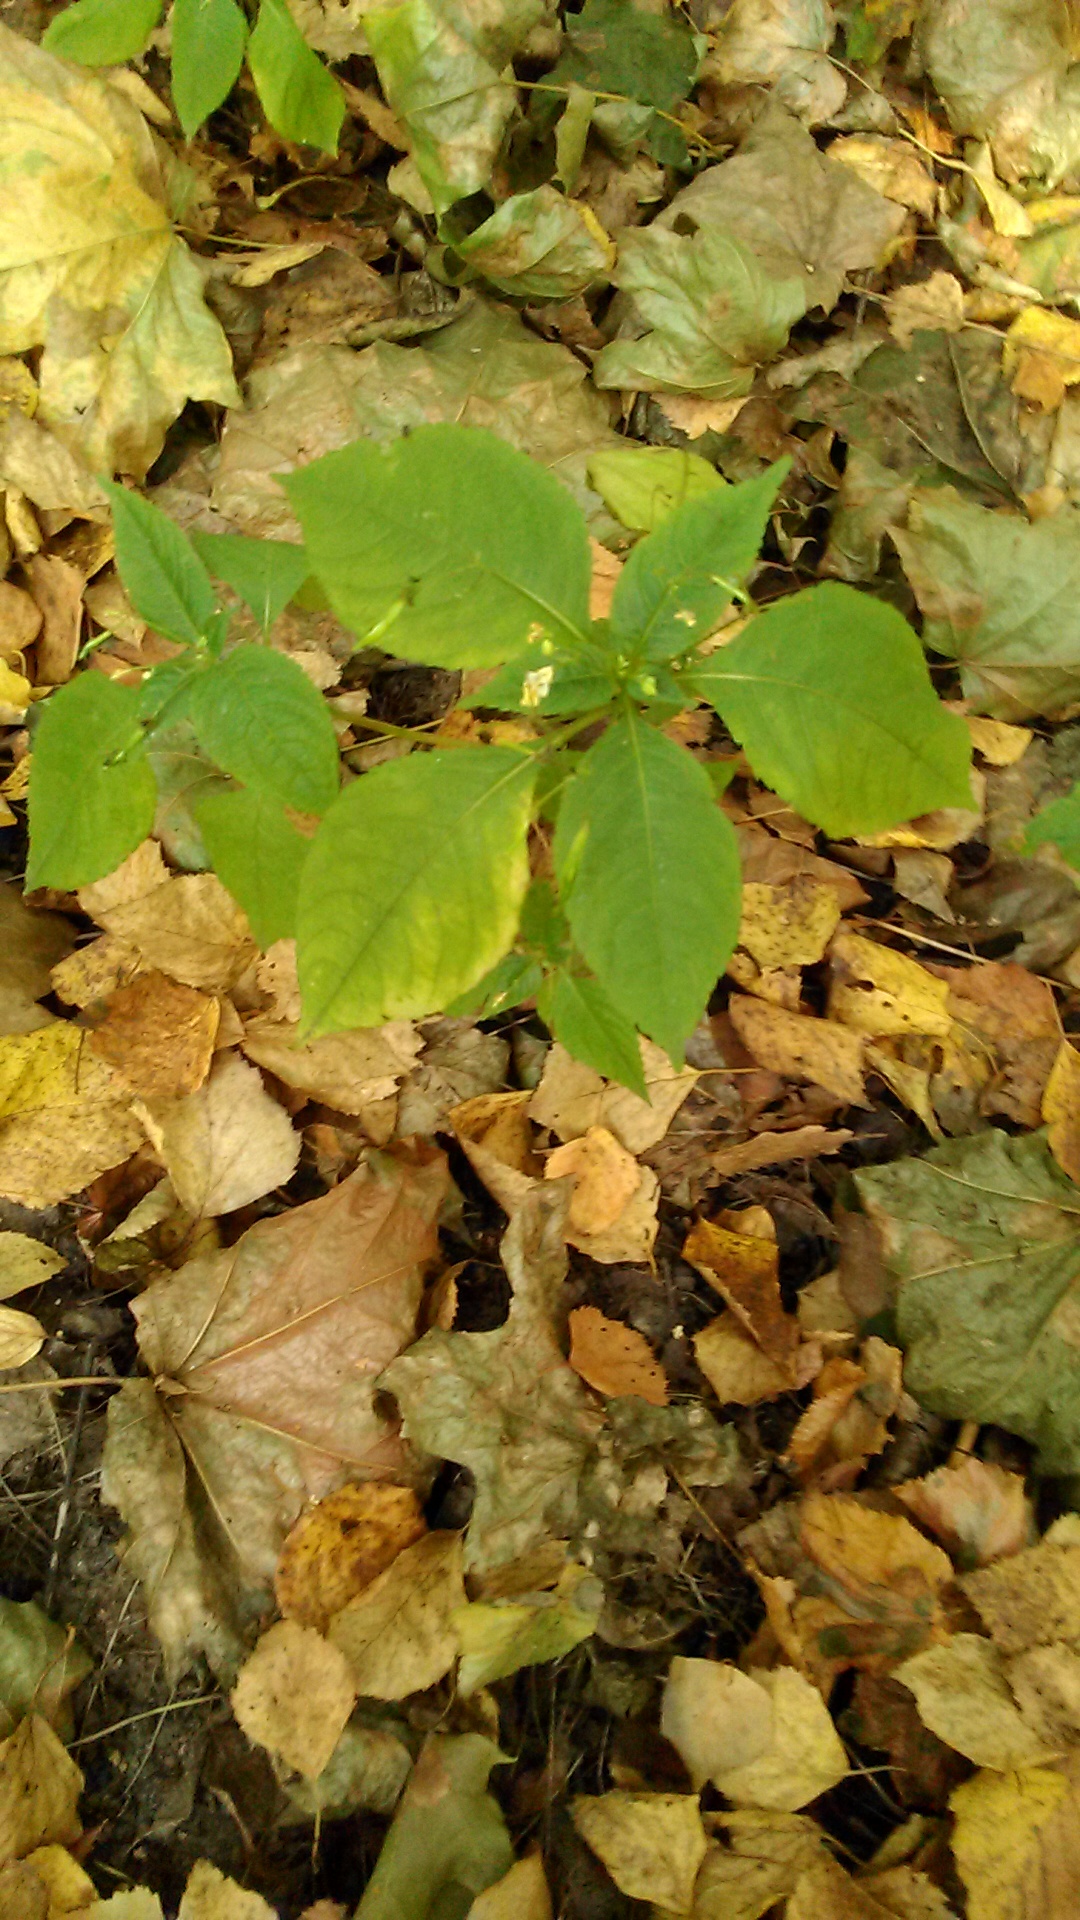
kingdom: Plantae
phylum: Tracheophyta
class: Magnoliopsida
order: Ericales
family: Balsaminaceae
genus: Impatiens
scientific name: Impatiens parviflora
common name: Small balsam
